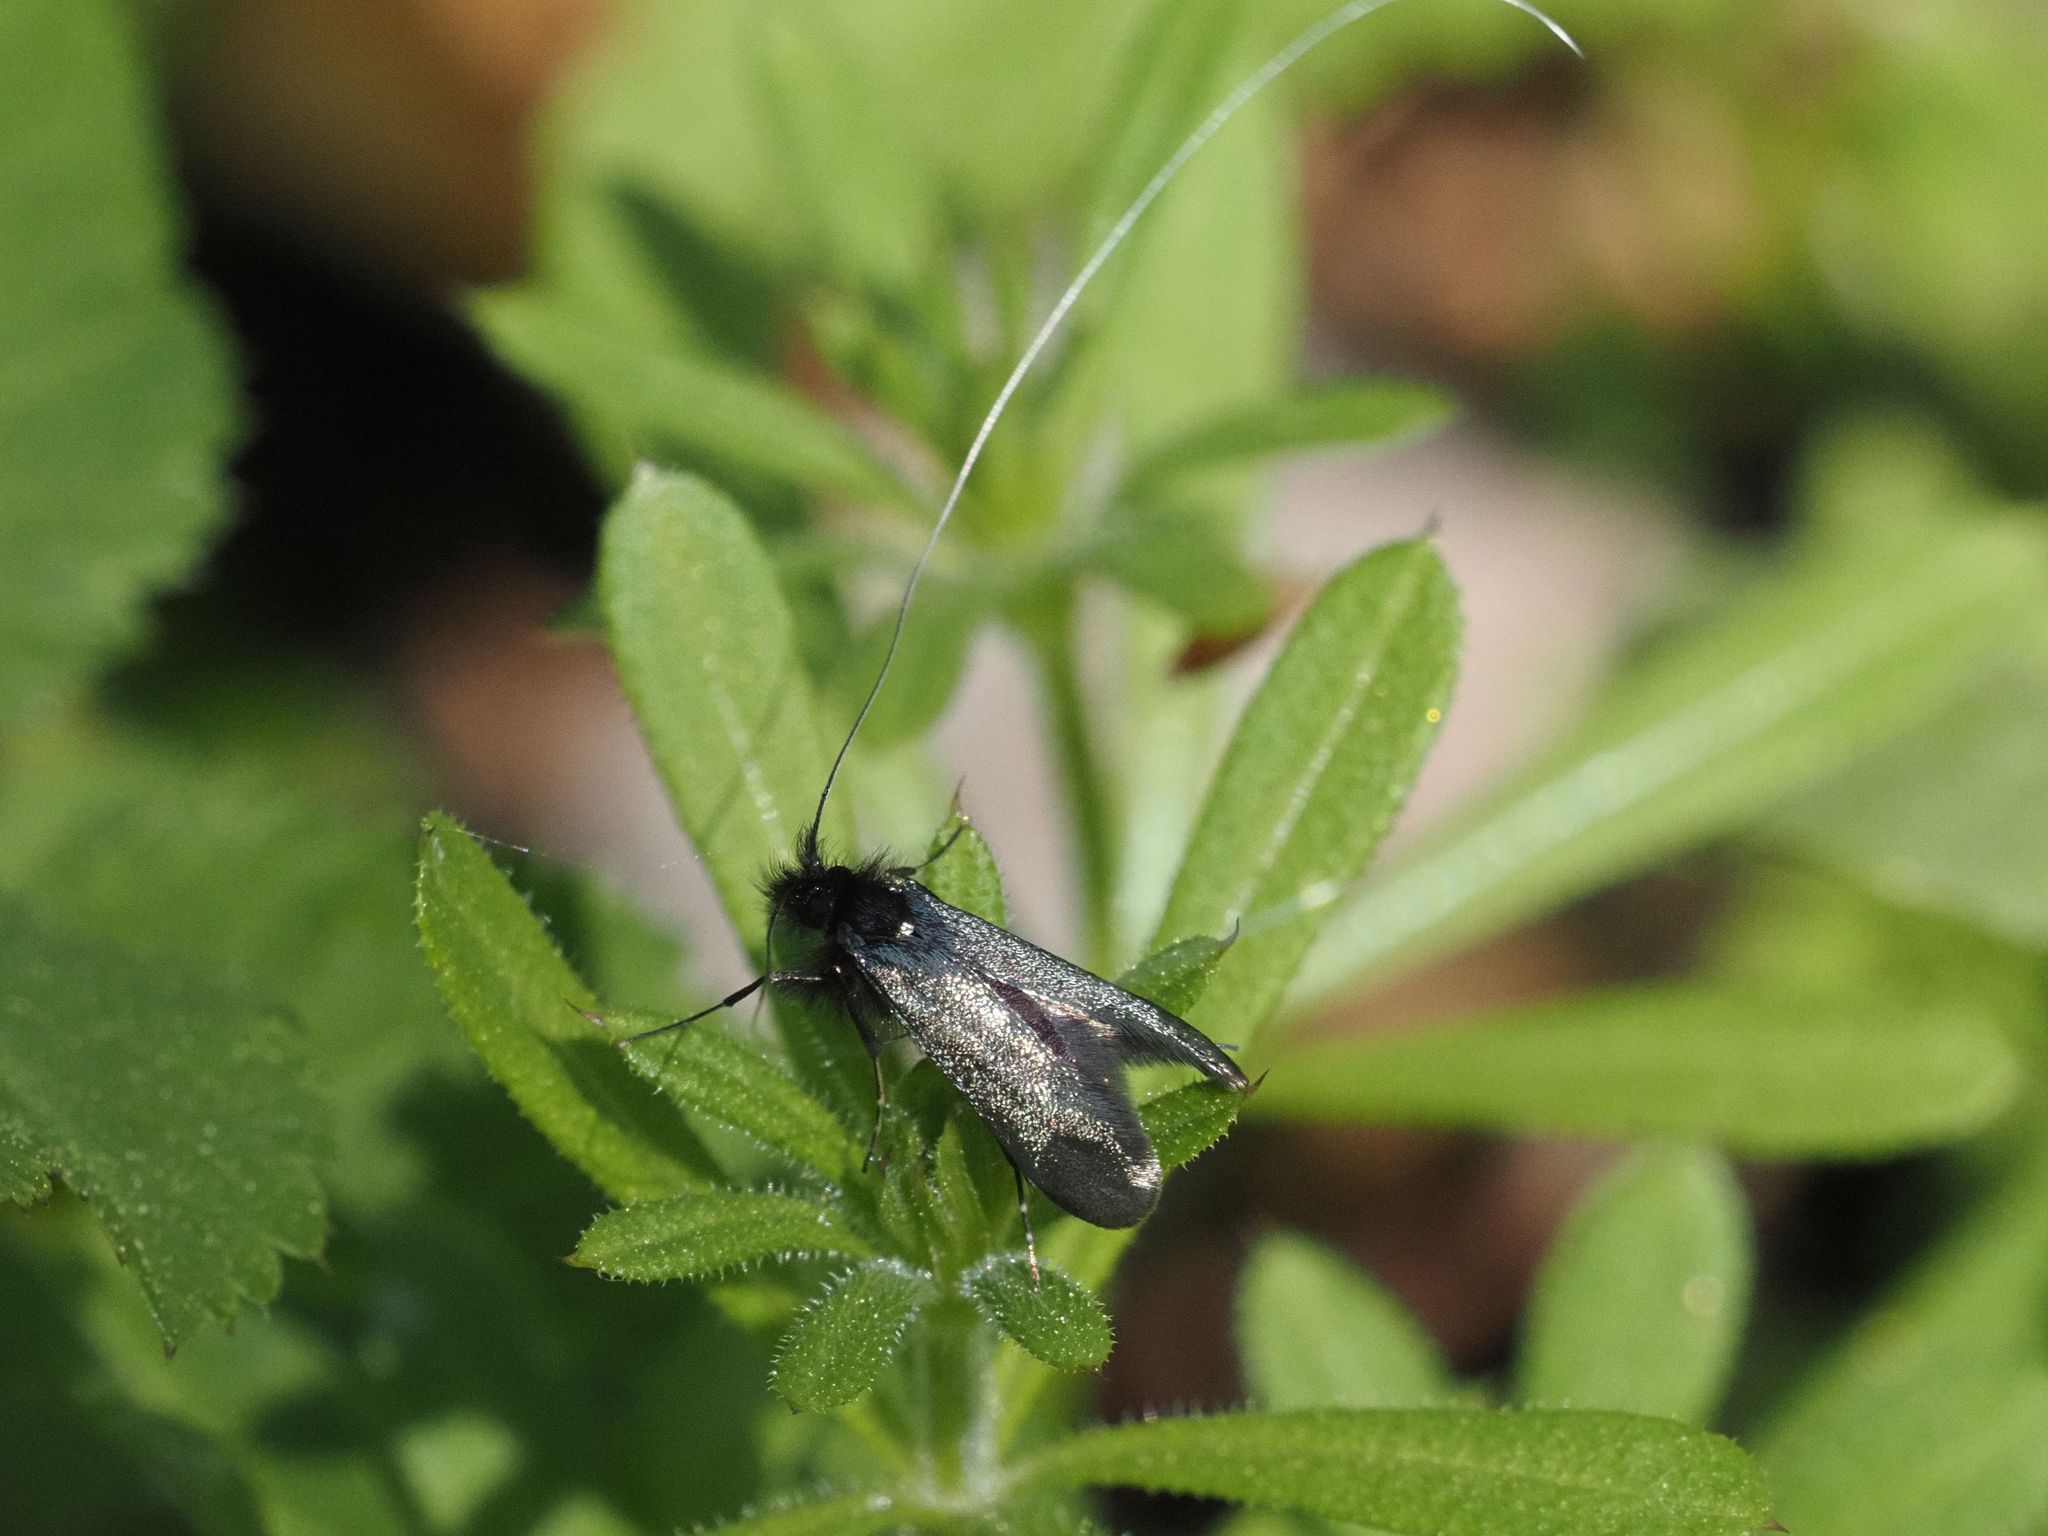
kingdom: Animalia
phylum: Arthropoda
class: Insecta
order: Lepidoptera
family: Adelidae
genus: Adela
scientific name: Adela viridella
